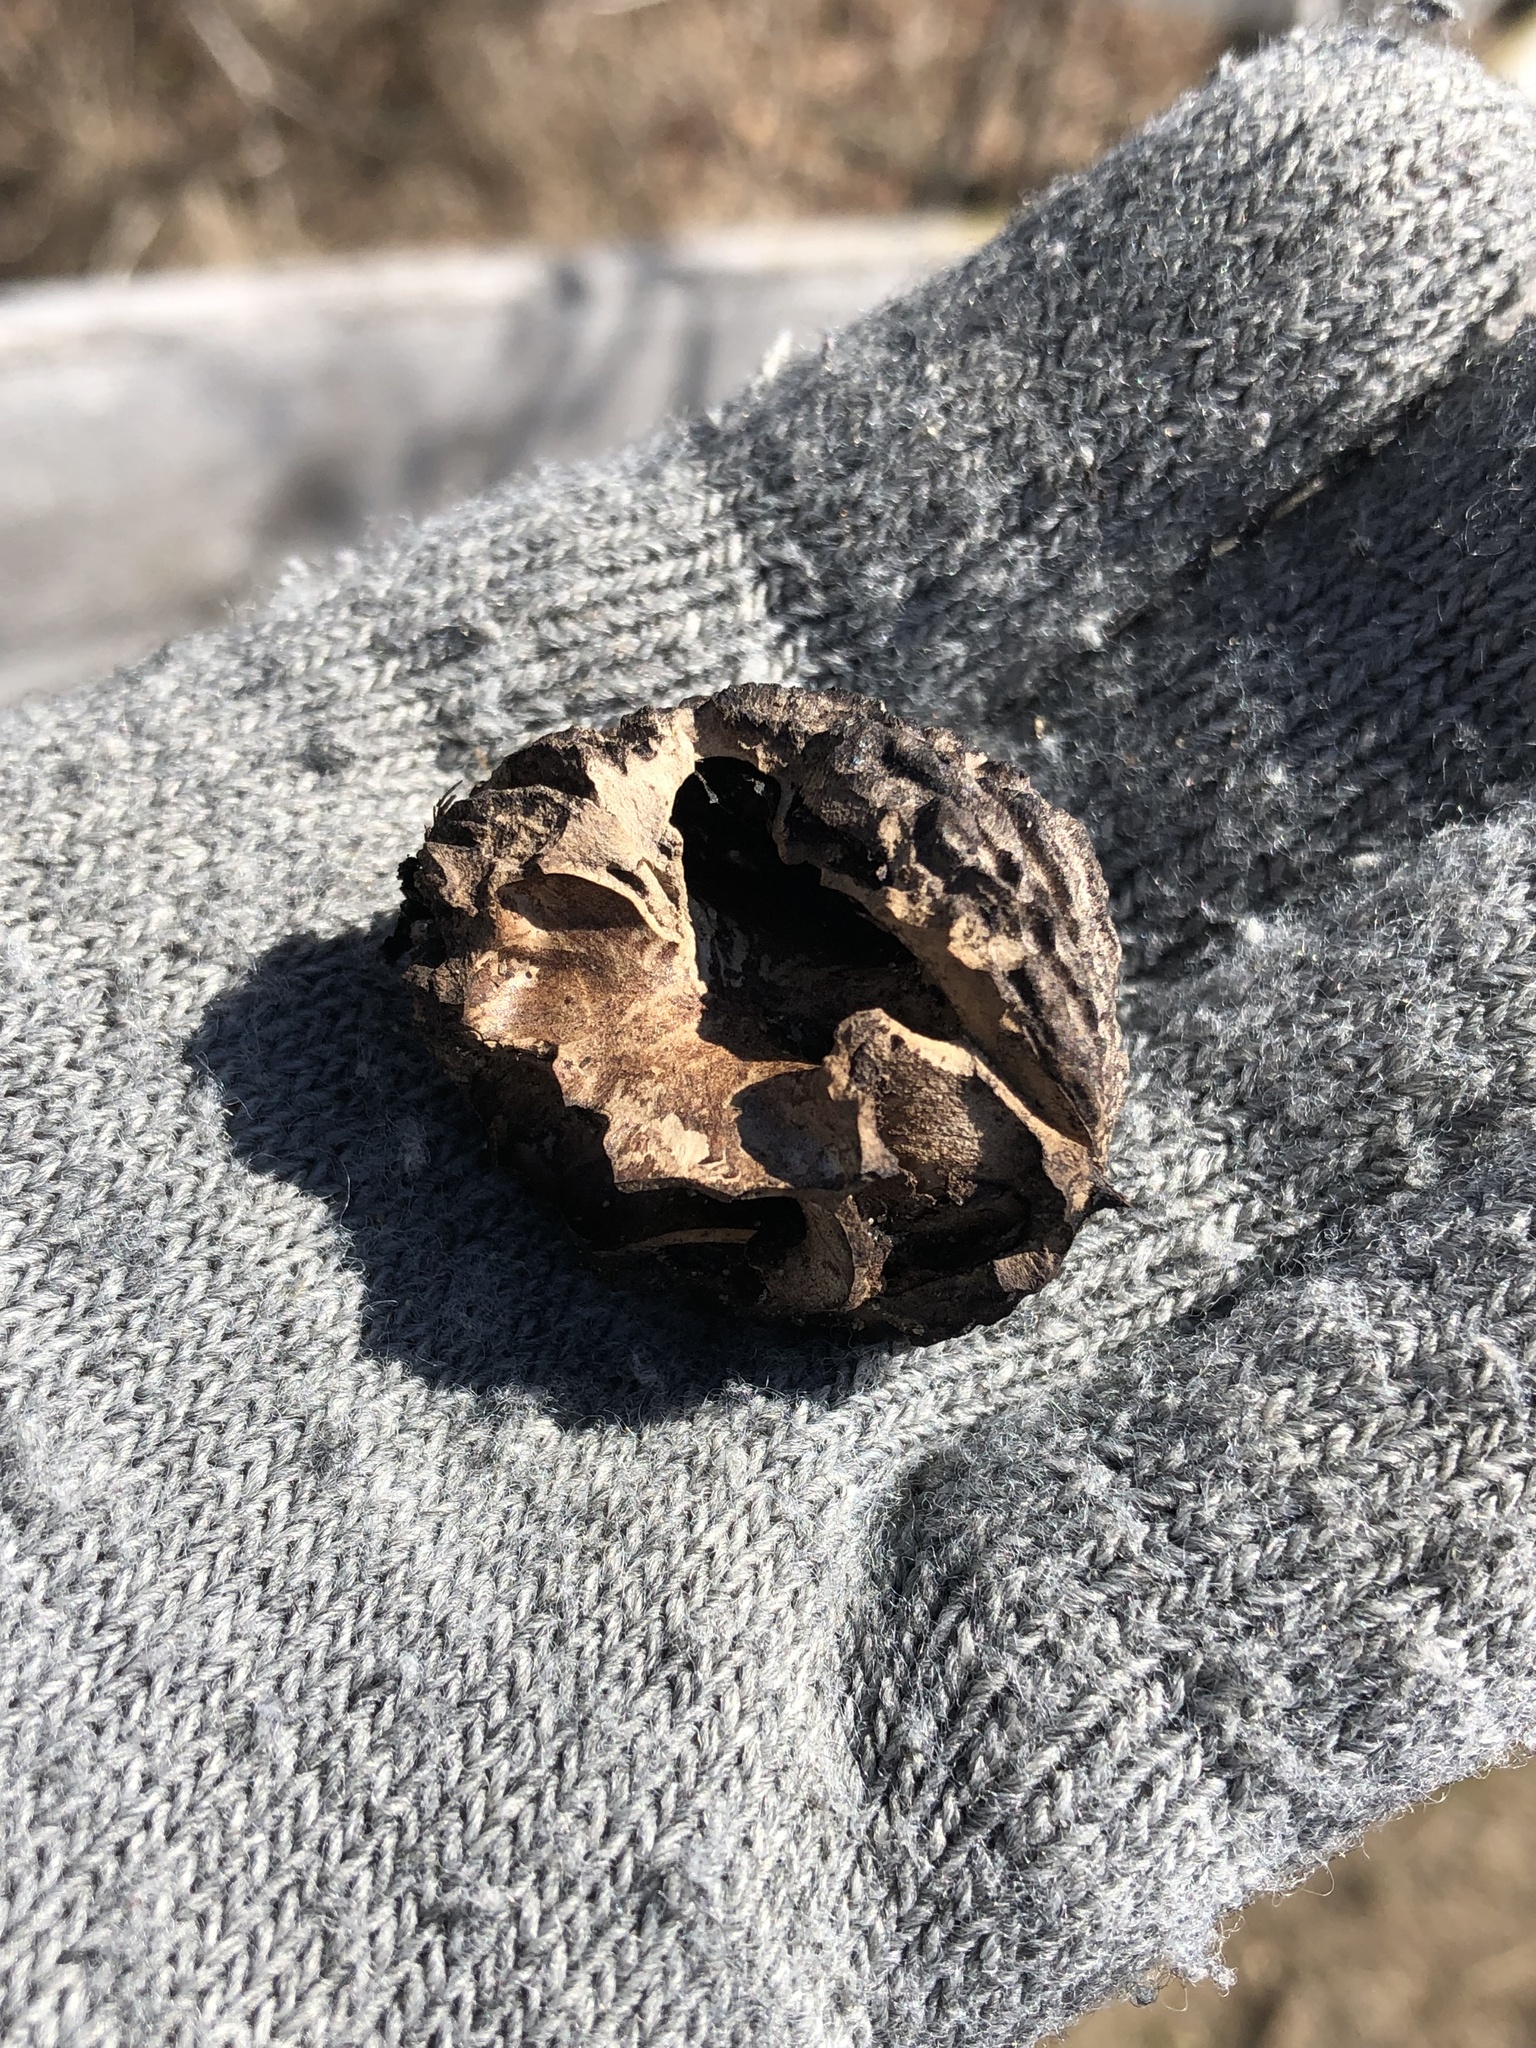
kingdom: Plantae
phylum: Tracheophyta
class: Magnoliopsida
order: Fagales
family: Juglandaceae
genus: Juglans
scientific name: Juglans nigra
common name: Black walnut
